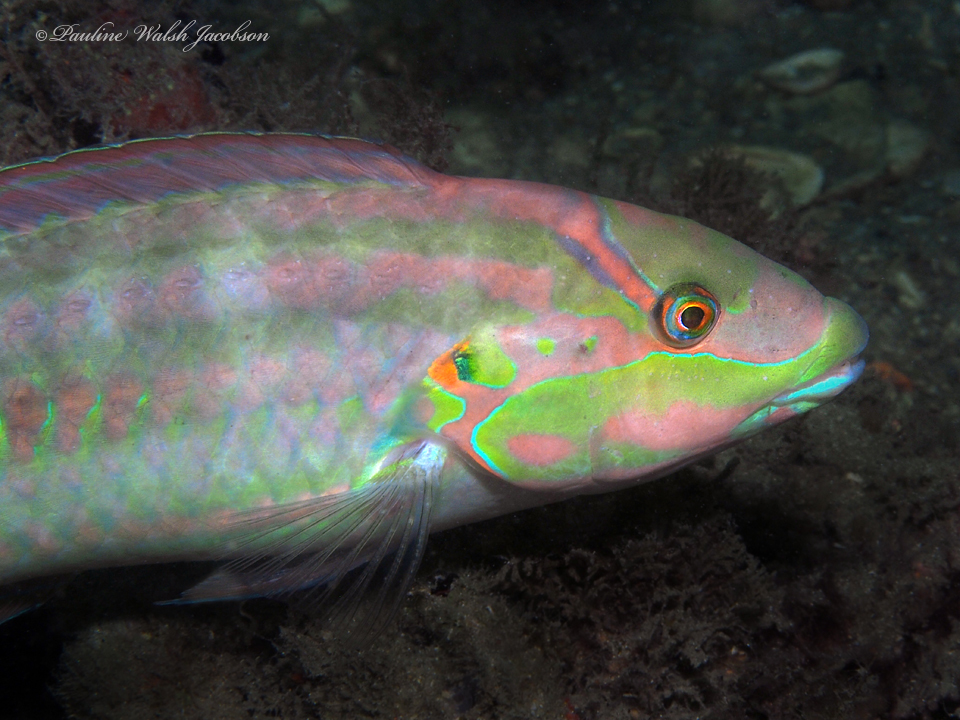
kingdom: Animalia
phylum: Chordata
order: Perciformes
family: Labridae
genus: Halichoeres
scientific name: Halichoeres bivittatus
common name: Slippery dick
